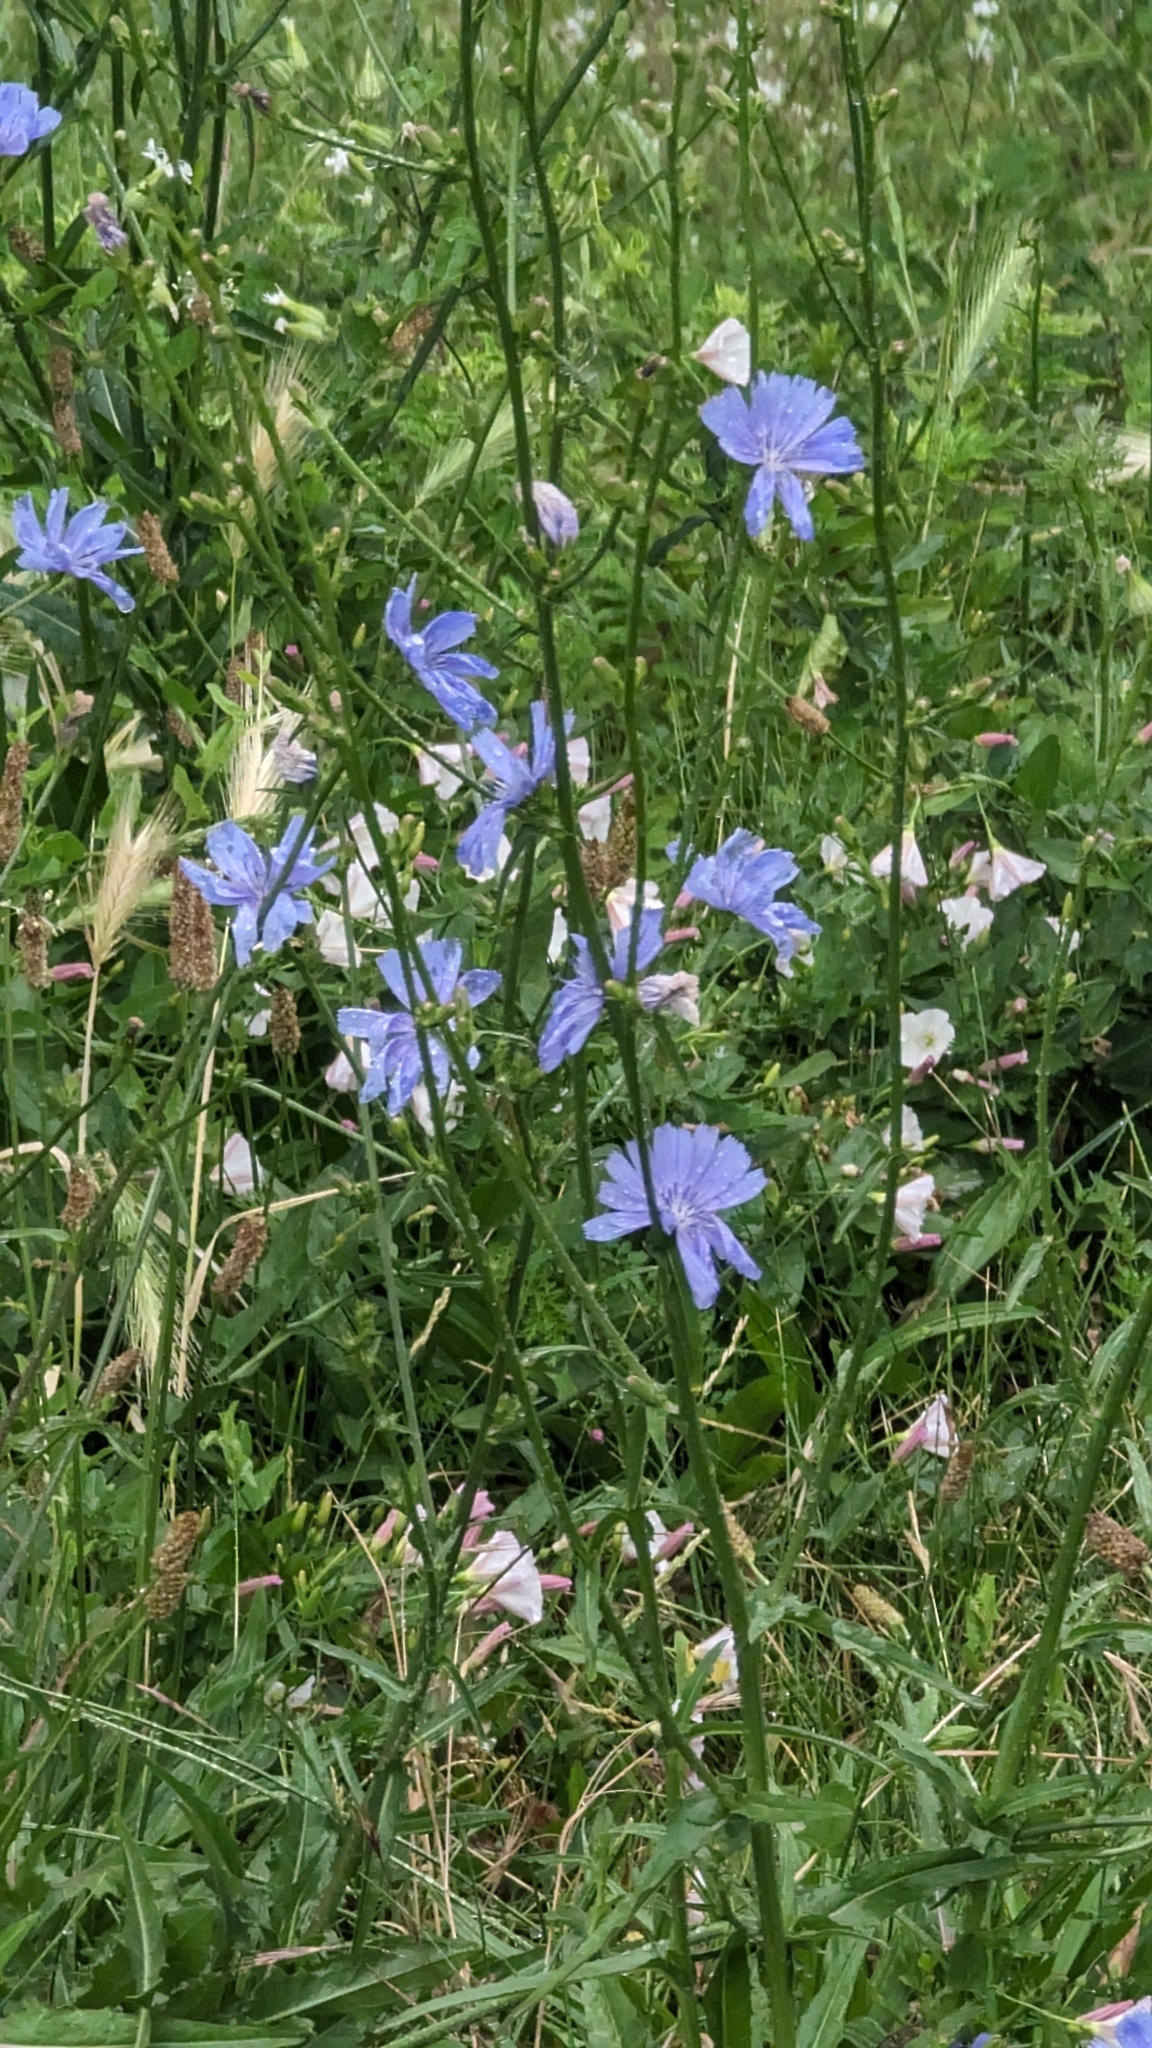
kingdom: Plantae
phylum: Tracheophyta
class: Magnoliopsida
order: Asterales
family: Asteraceae
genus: Cichorium
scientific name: Cichorium intybus
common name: Chicory
